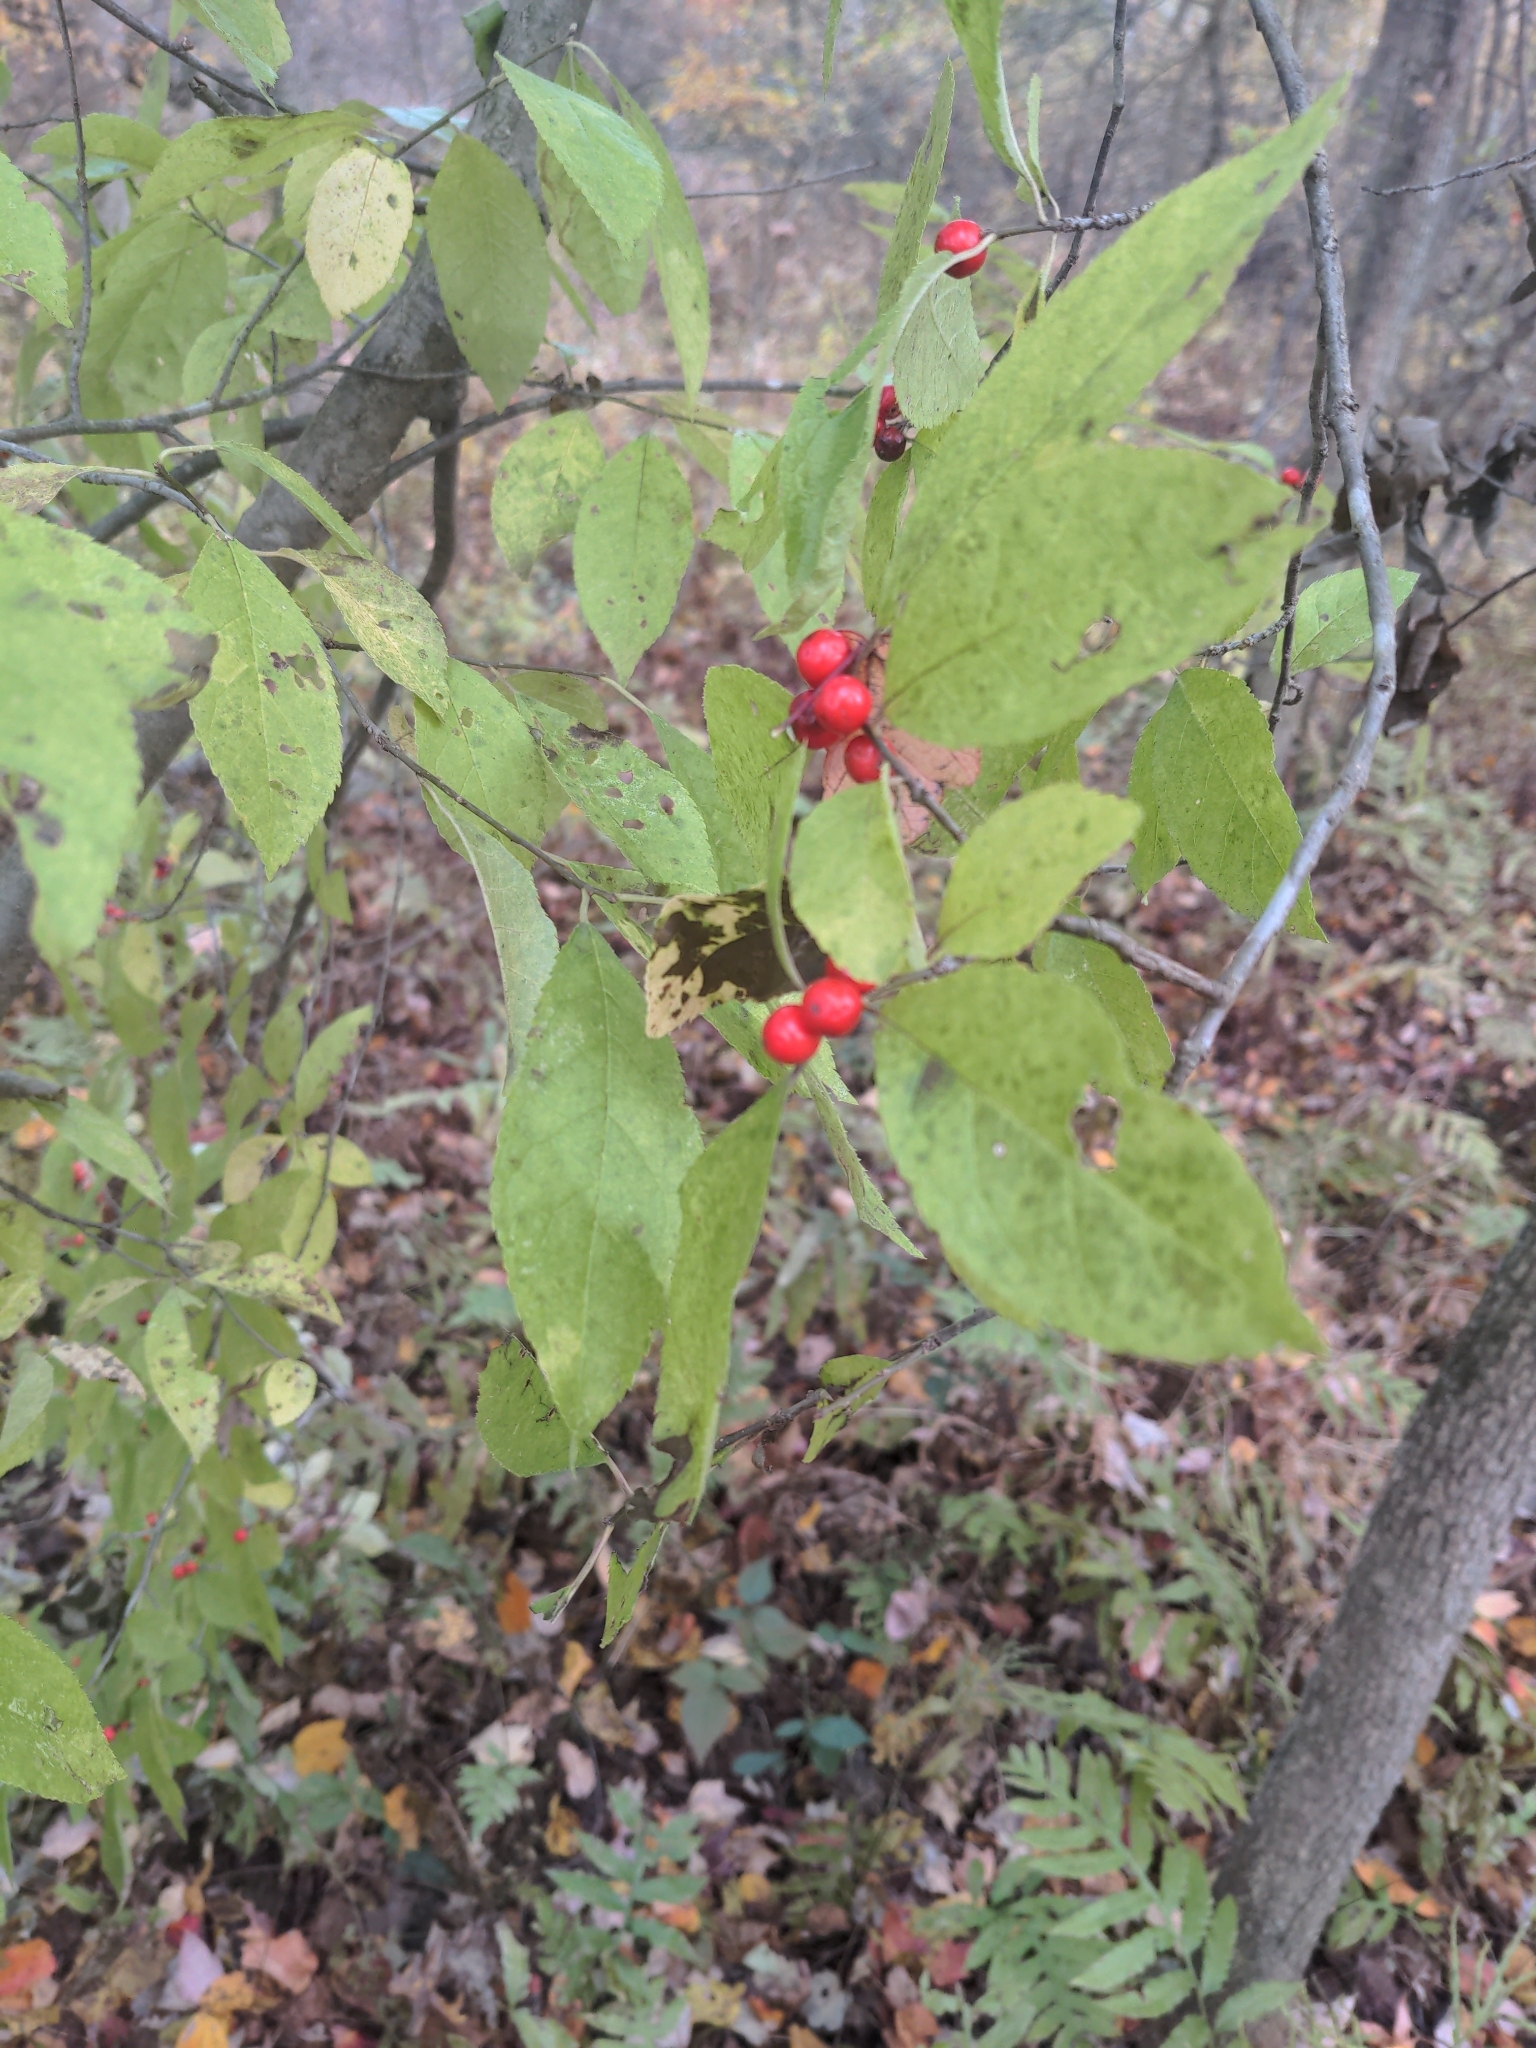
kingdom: Plantae
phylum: Tracheophyta
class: Magnoliopsida
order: Aquifoliales
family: Aquifoliaceae
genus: Ilex
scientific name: Ilex verticillata
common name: Virginia winterberry
